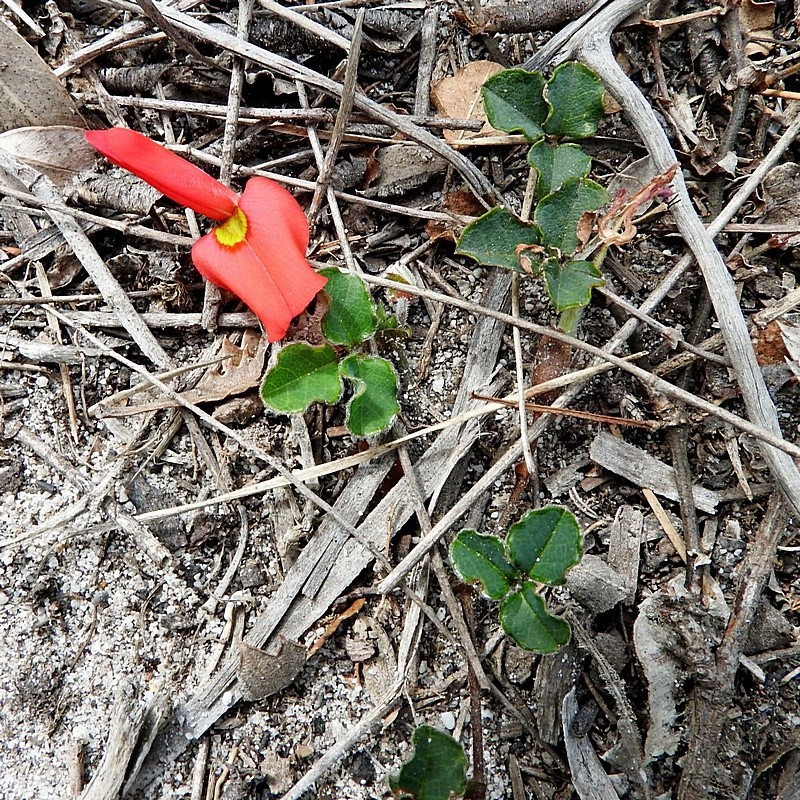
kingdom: Plantae
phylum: Tracheophyta
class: Magnoliopsida
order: Fabales
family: Fabaceae
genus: Kennedia
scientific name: Kennedia prostrata
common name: Running-postman
